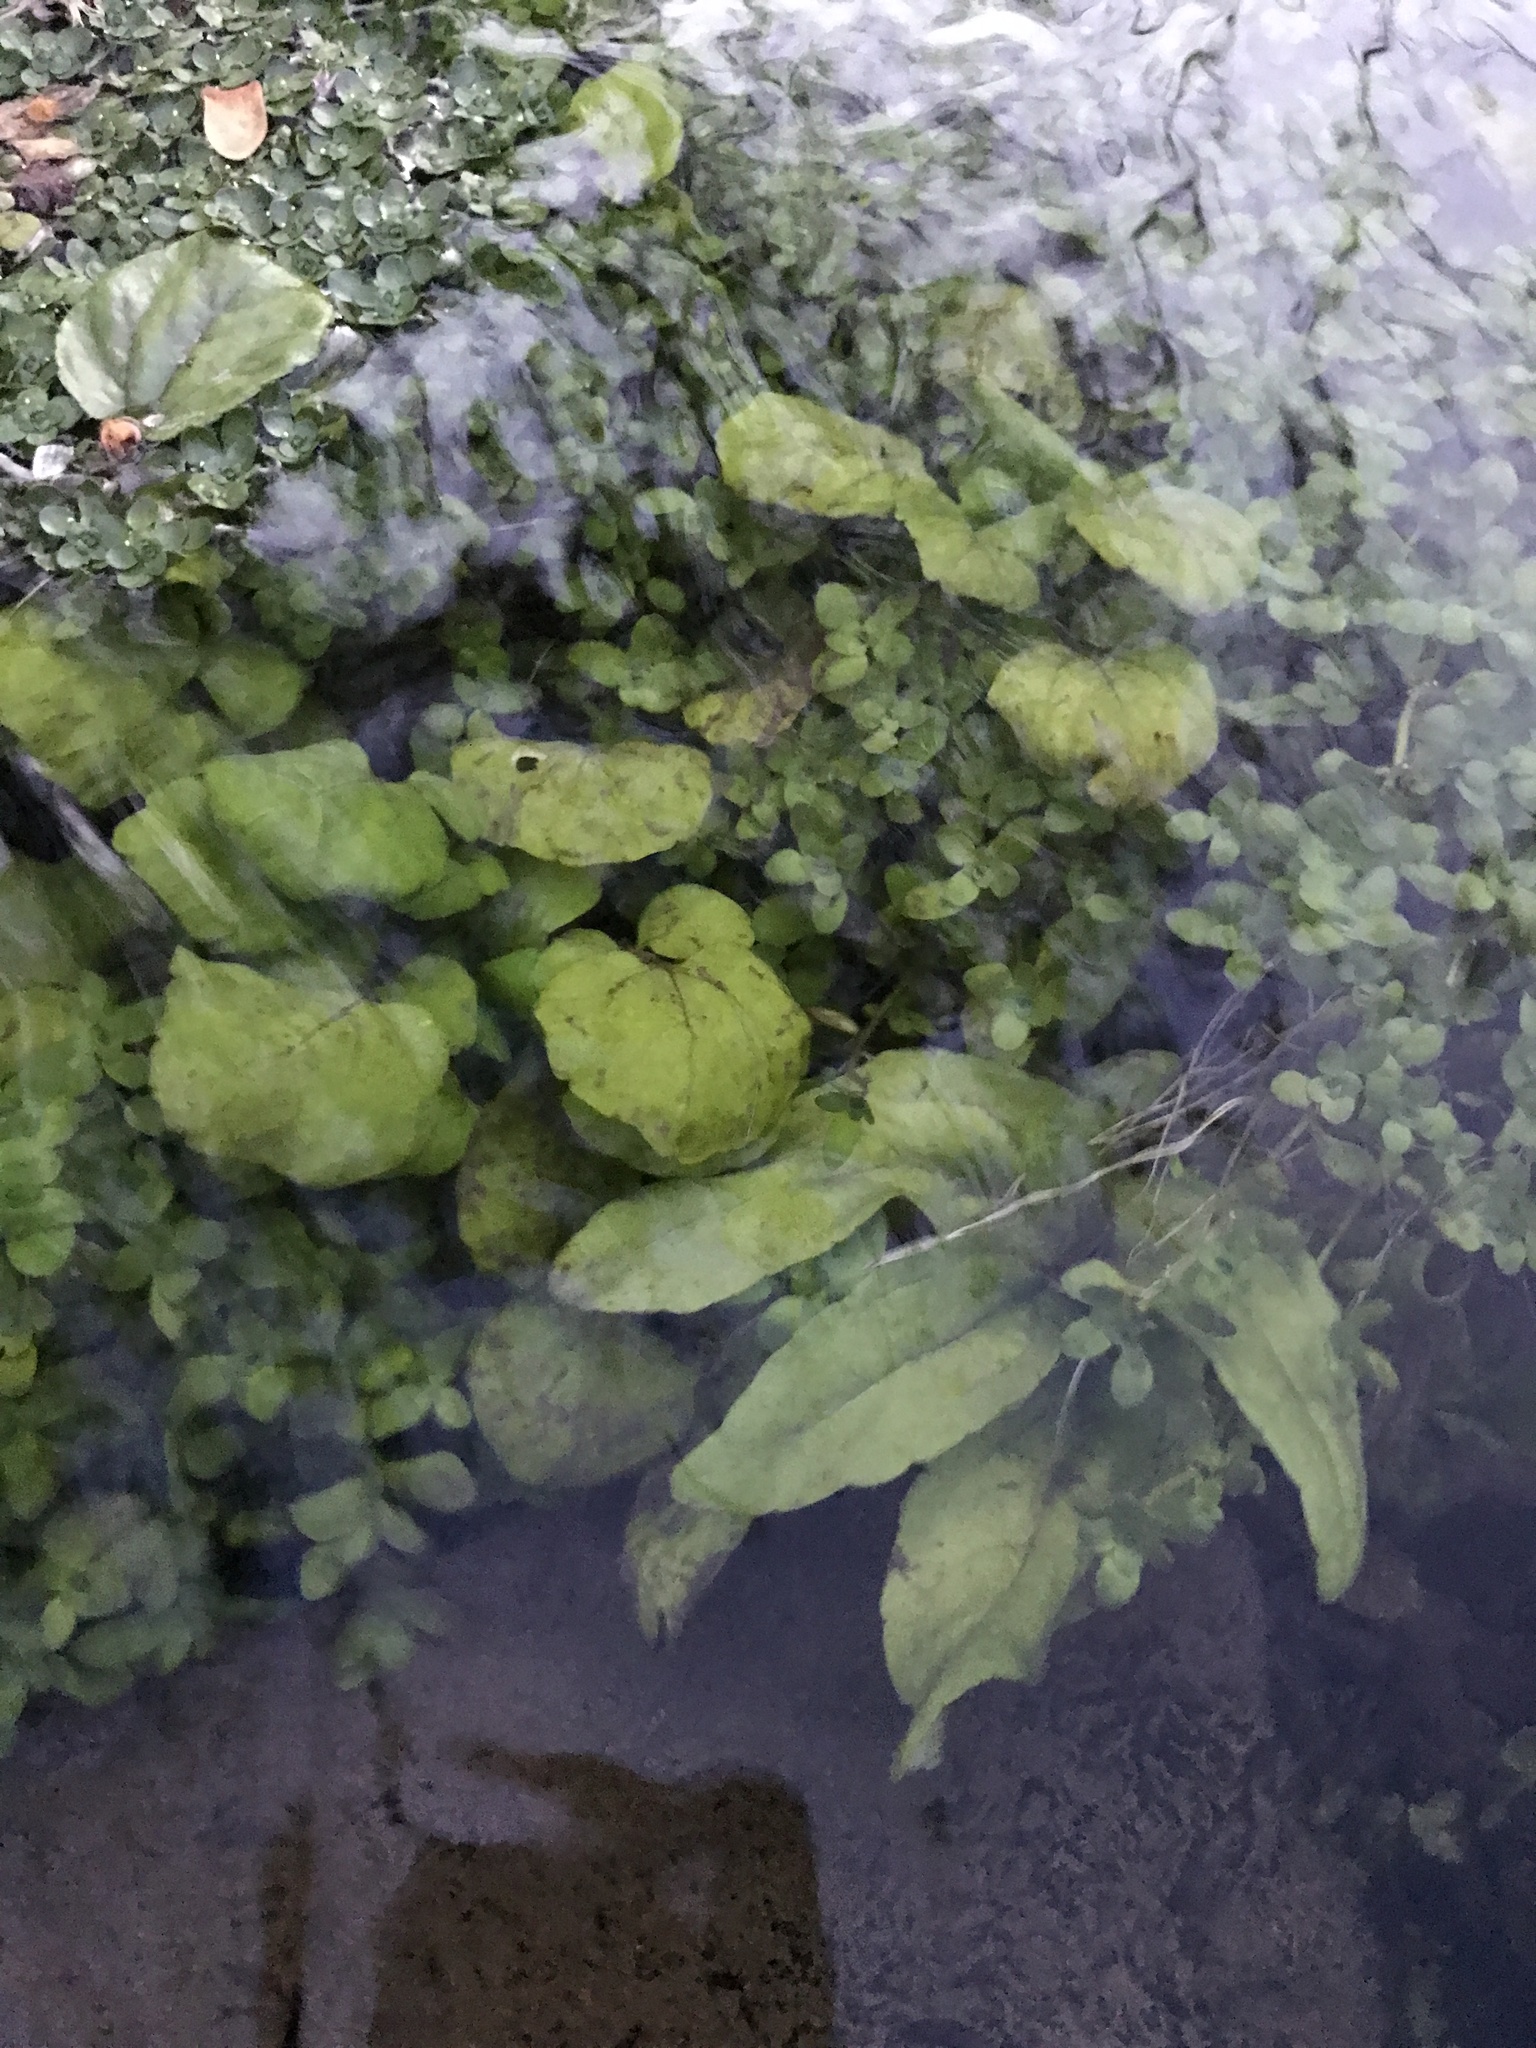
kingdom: Plantae
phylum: Tracheophyta
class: Magnoliopsida
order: Brassicales
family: Brassicaceae
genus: Nasturtium
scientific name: Nasturtium officinale
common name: Watercress
